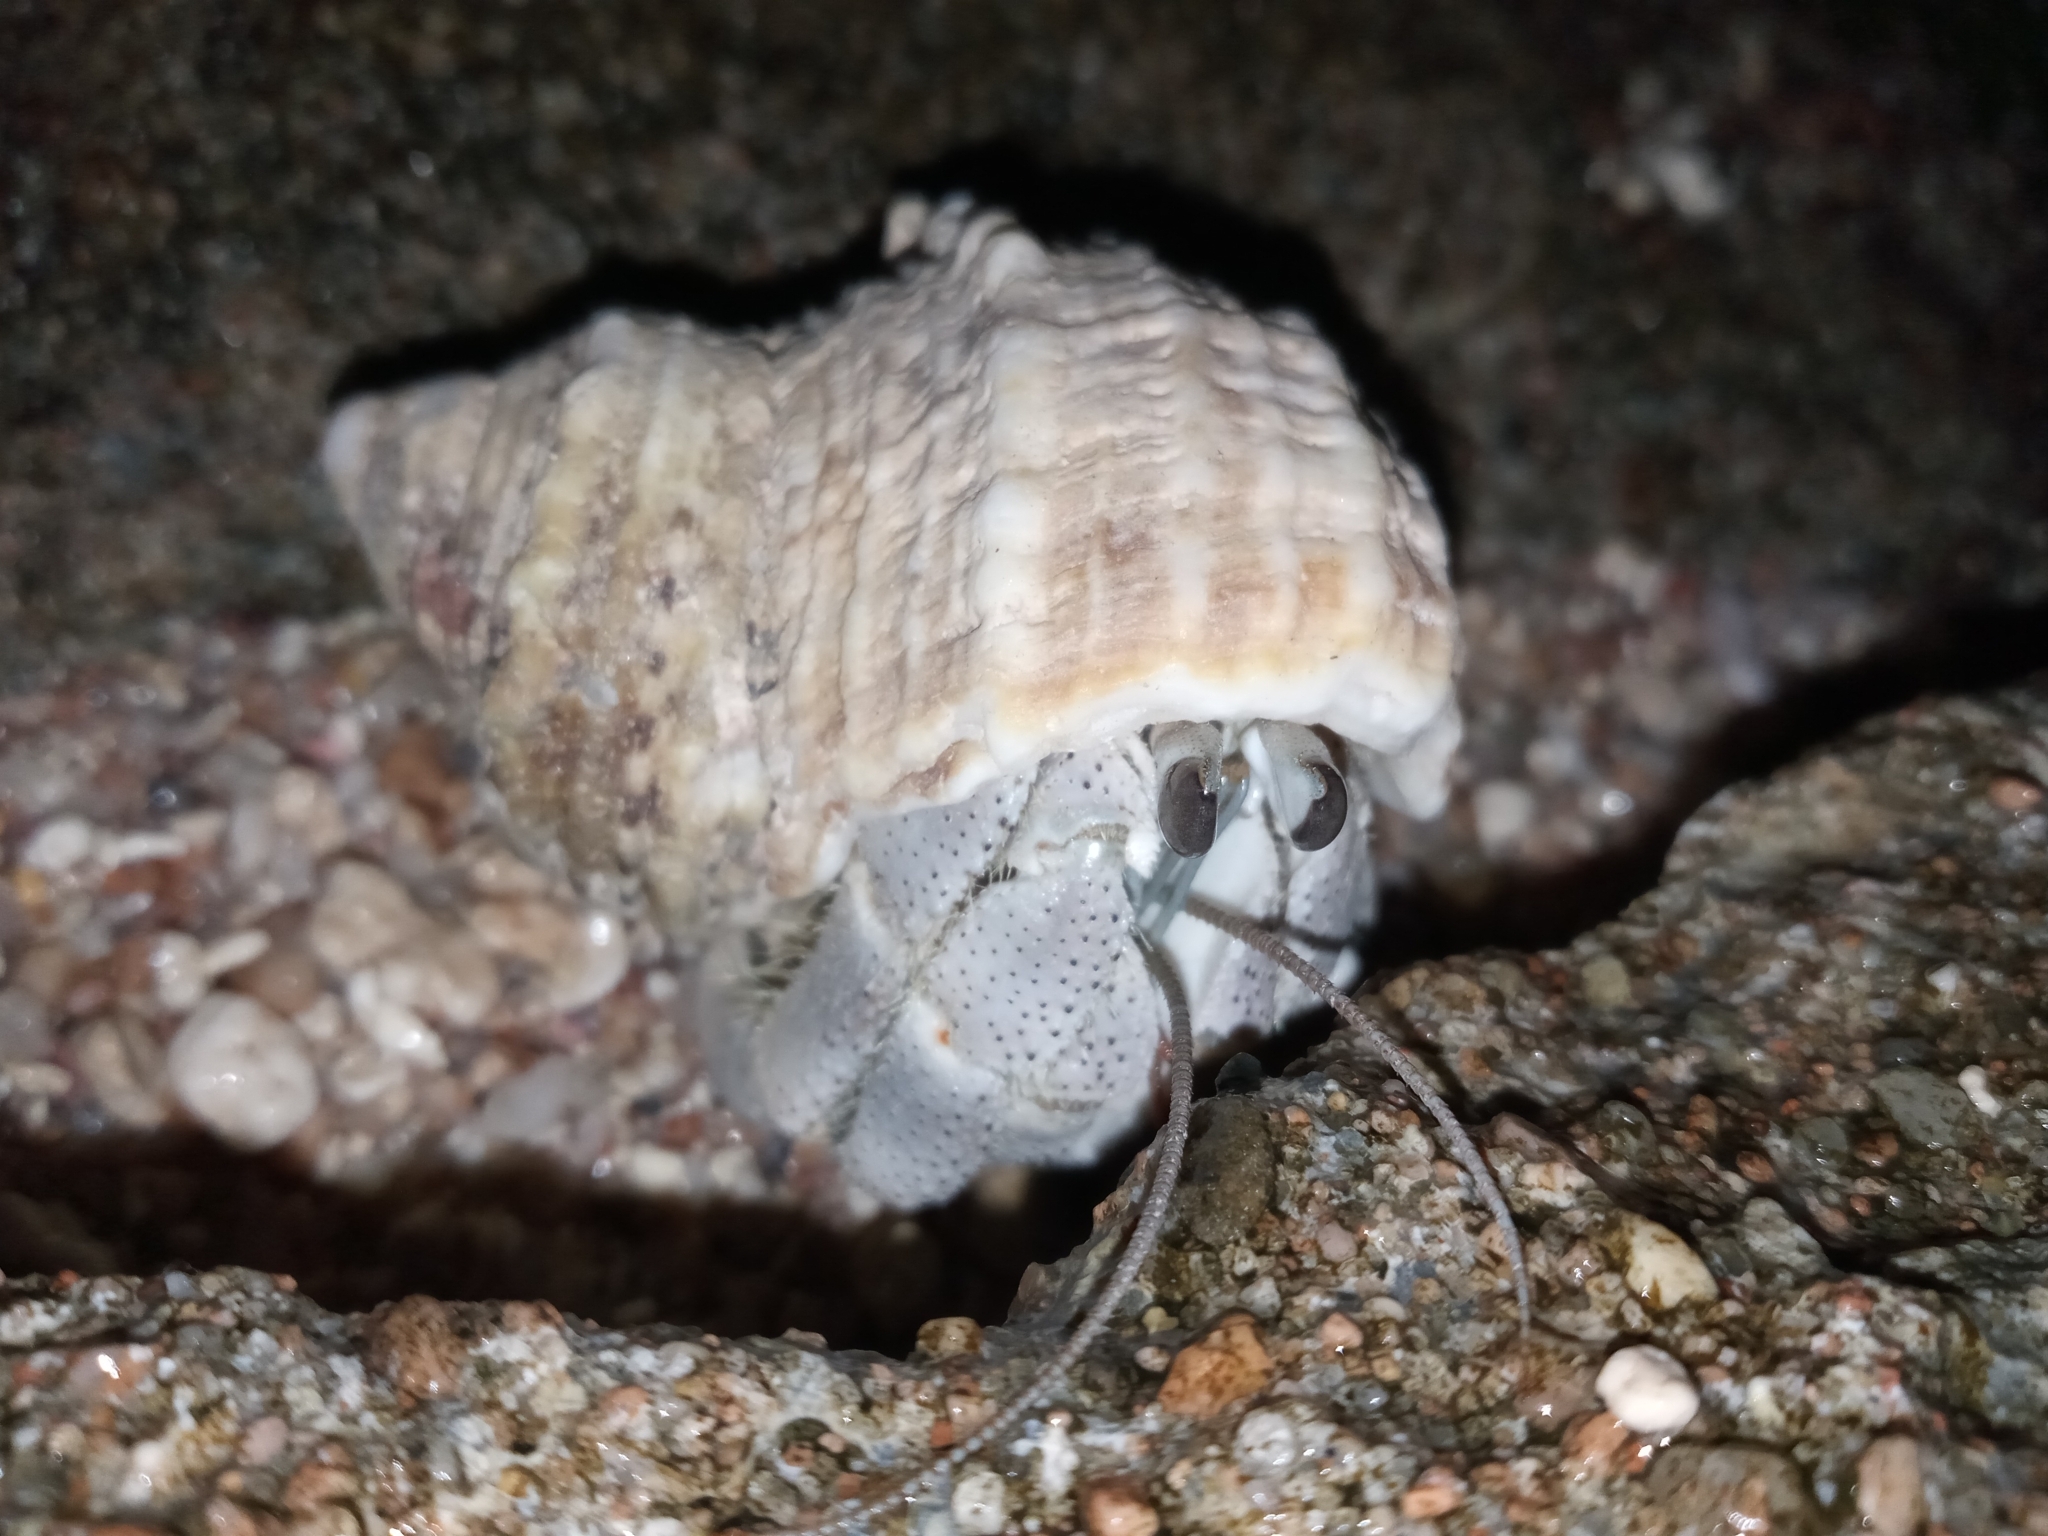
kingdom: Animalia
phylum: Arthropoda
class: Malacostraca
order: Decapoda
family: Coenobitidae
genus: Coenobita
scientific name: Coenobita scaevola
